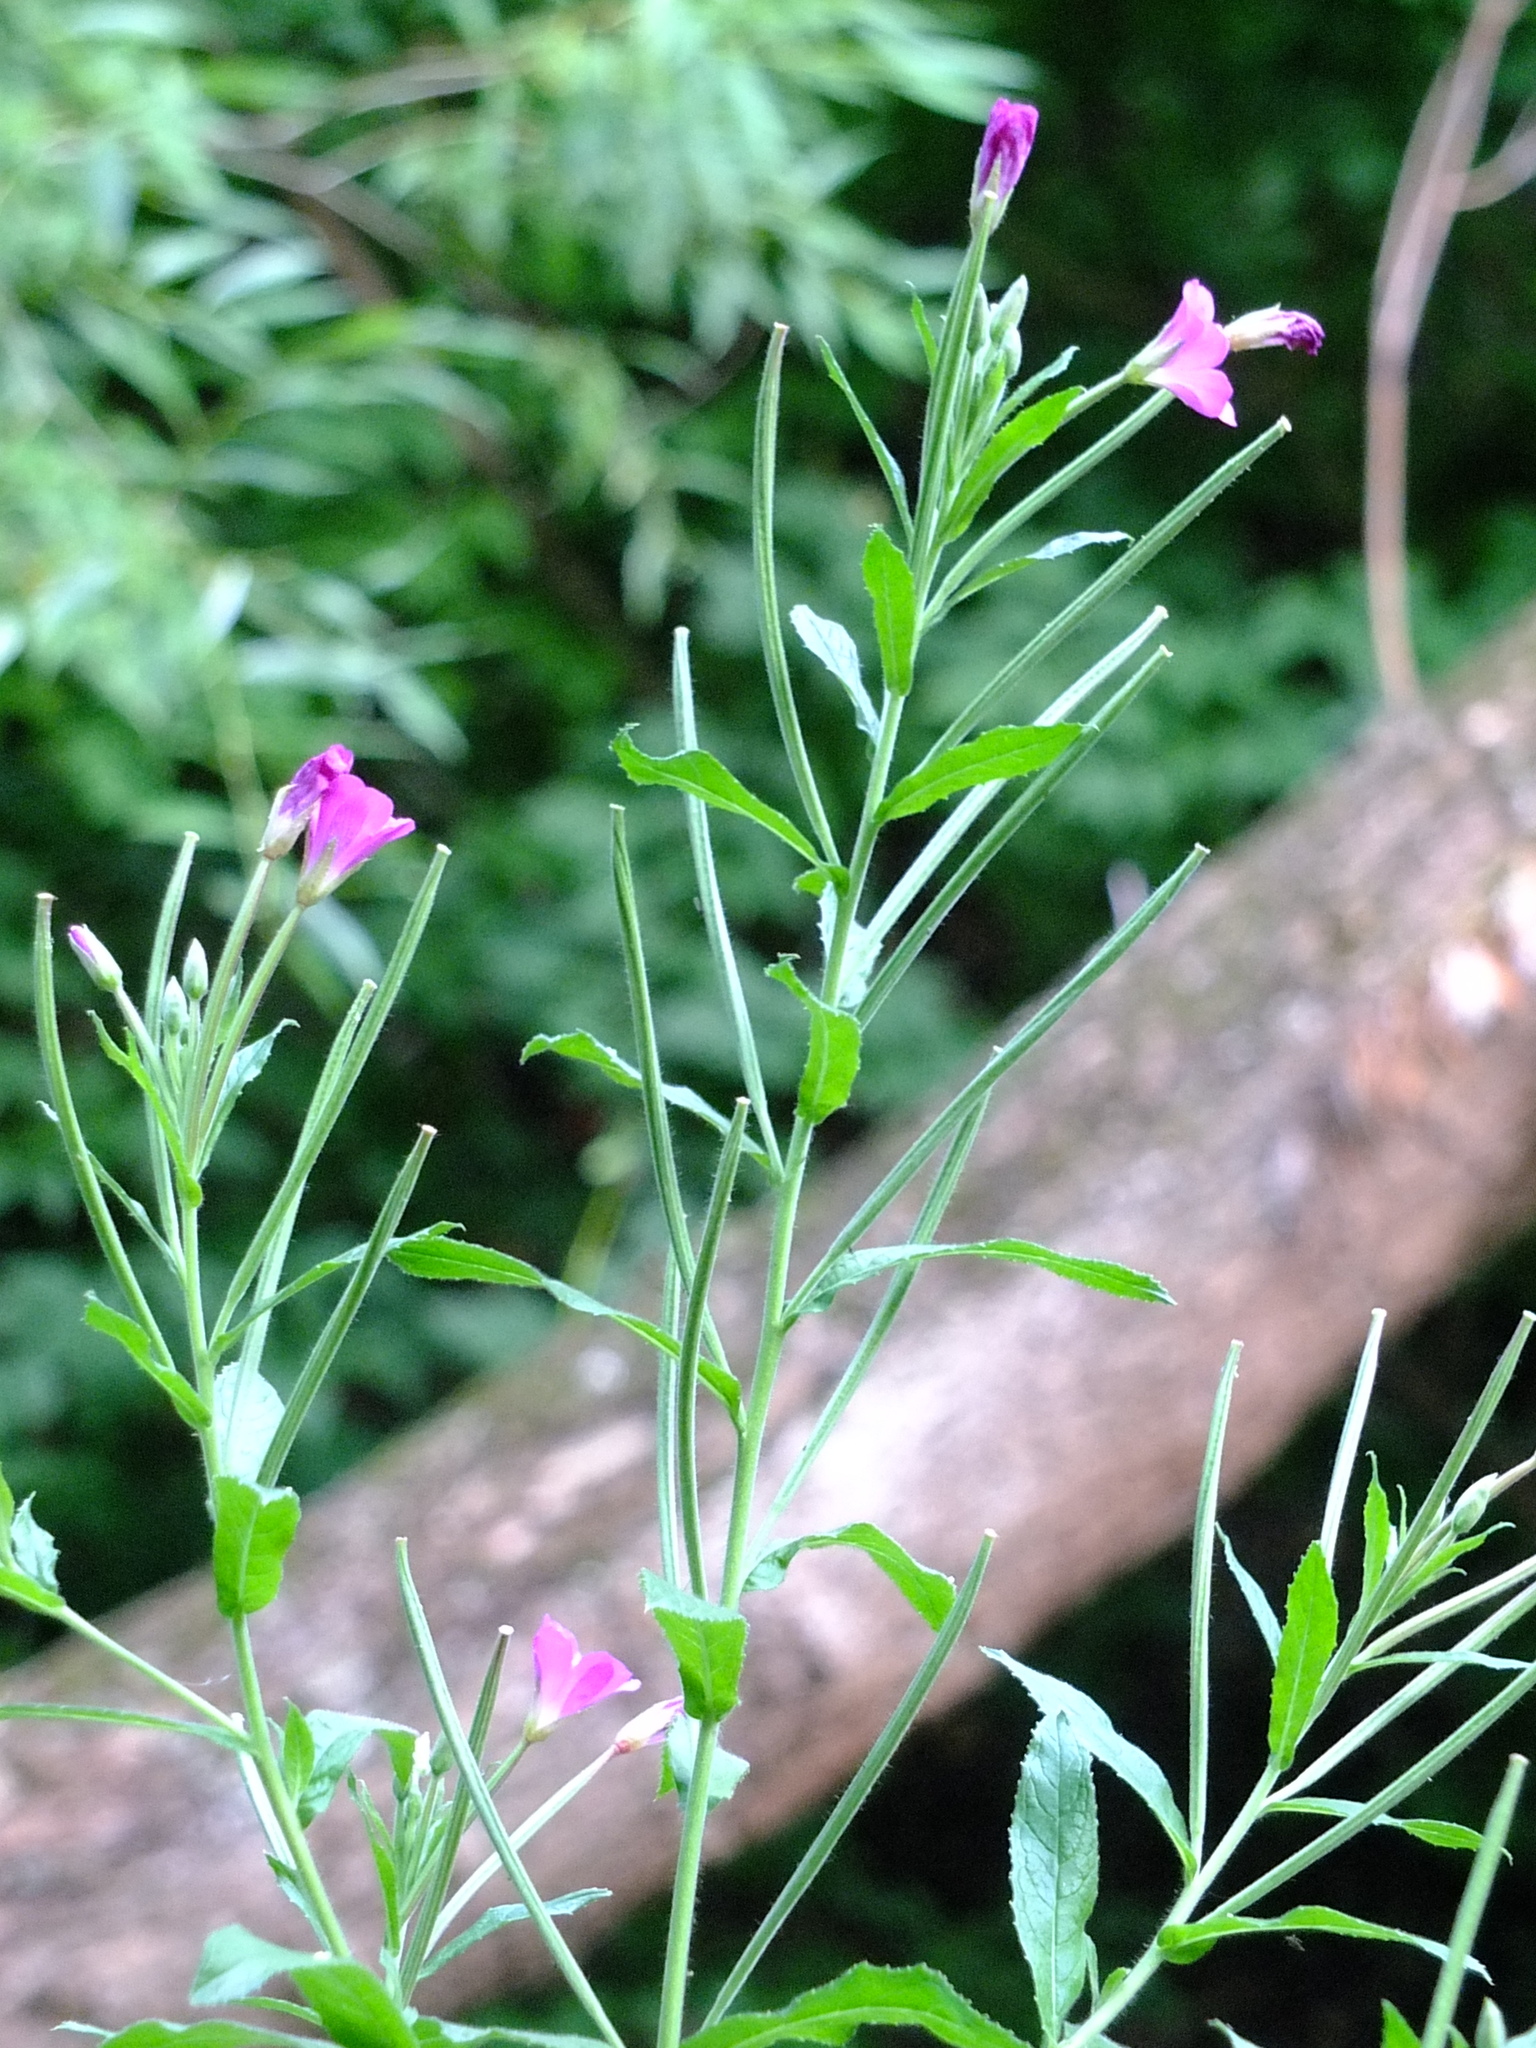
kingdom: Plantae
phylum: Tracheophyta
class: Magnoliopsida
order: Myrtales
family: Onagraceae
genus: Epilobium
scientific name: Epilobium hirsutum
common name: Great willowherb
